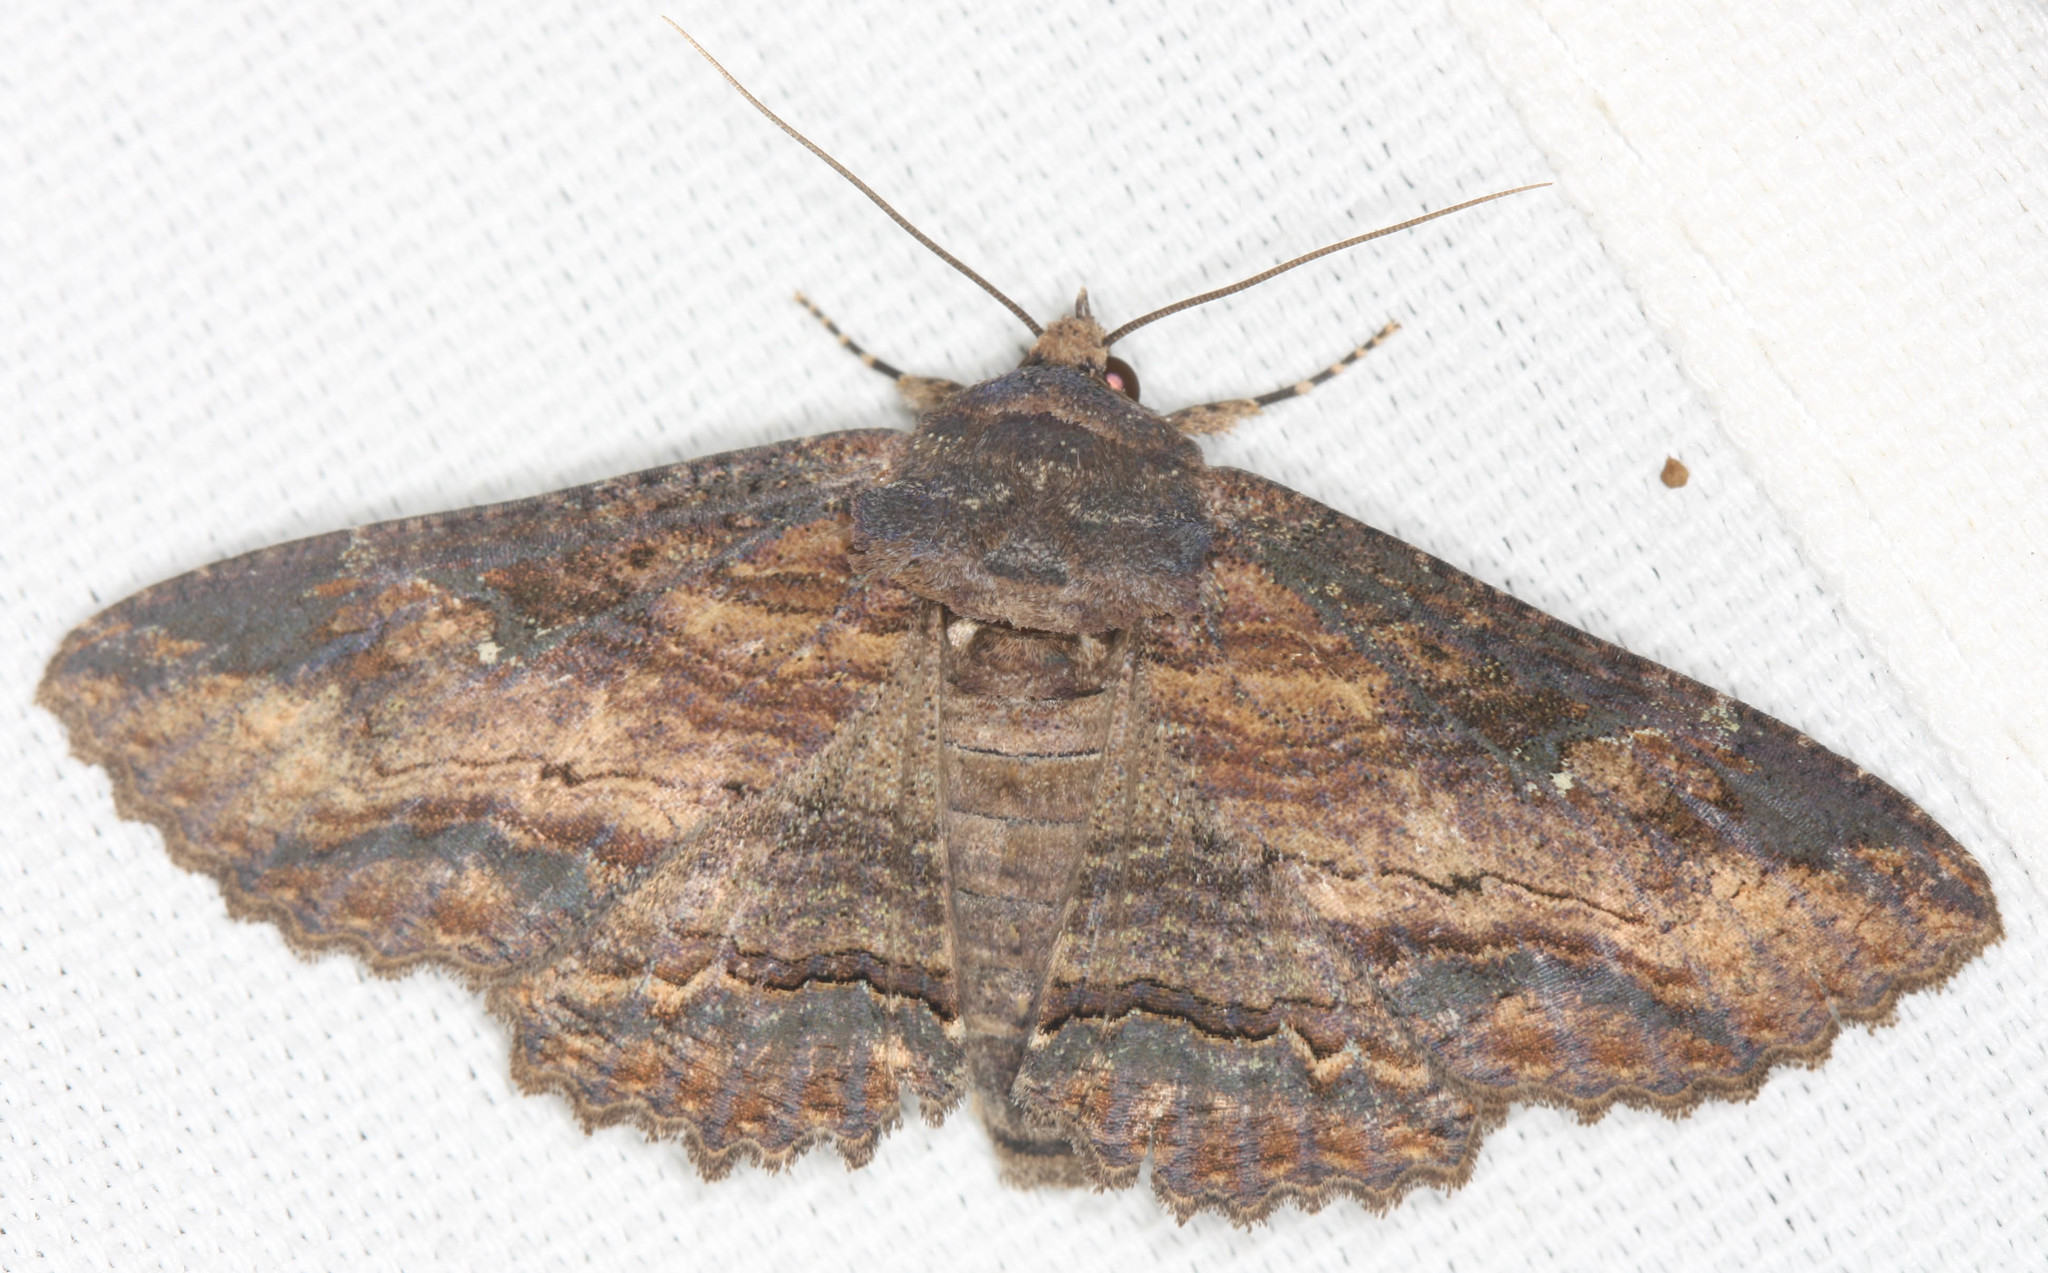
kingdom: Animalia
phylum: Arthropoda
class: Insecta
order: Lepidoptera
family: Erebidae
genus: Zale
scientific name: Zale lunata
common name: Lunate zale moth
